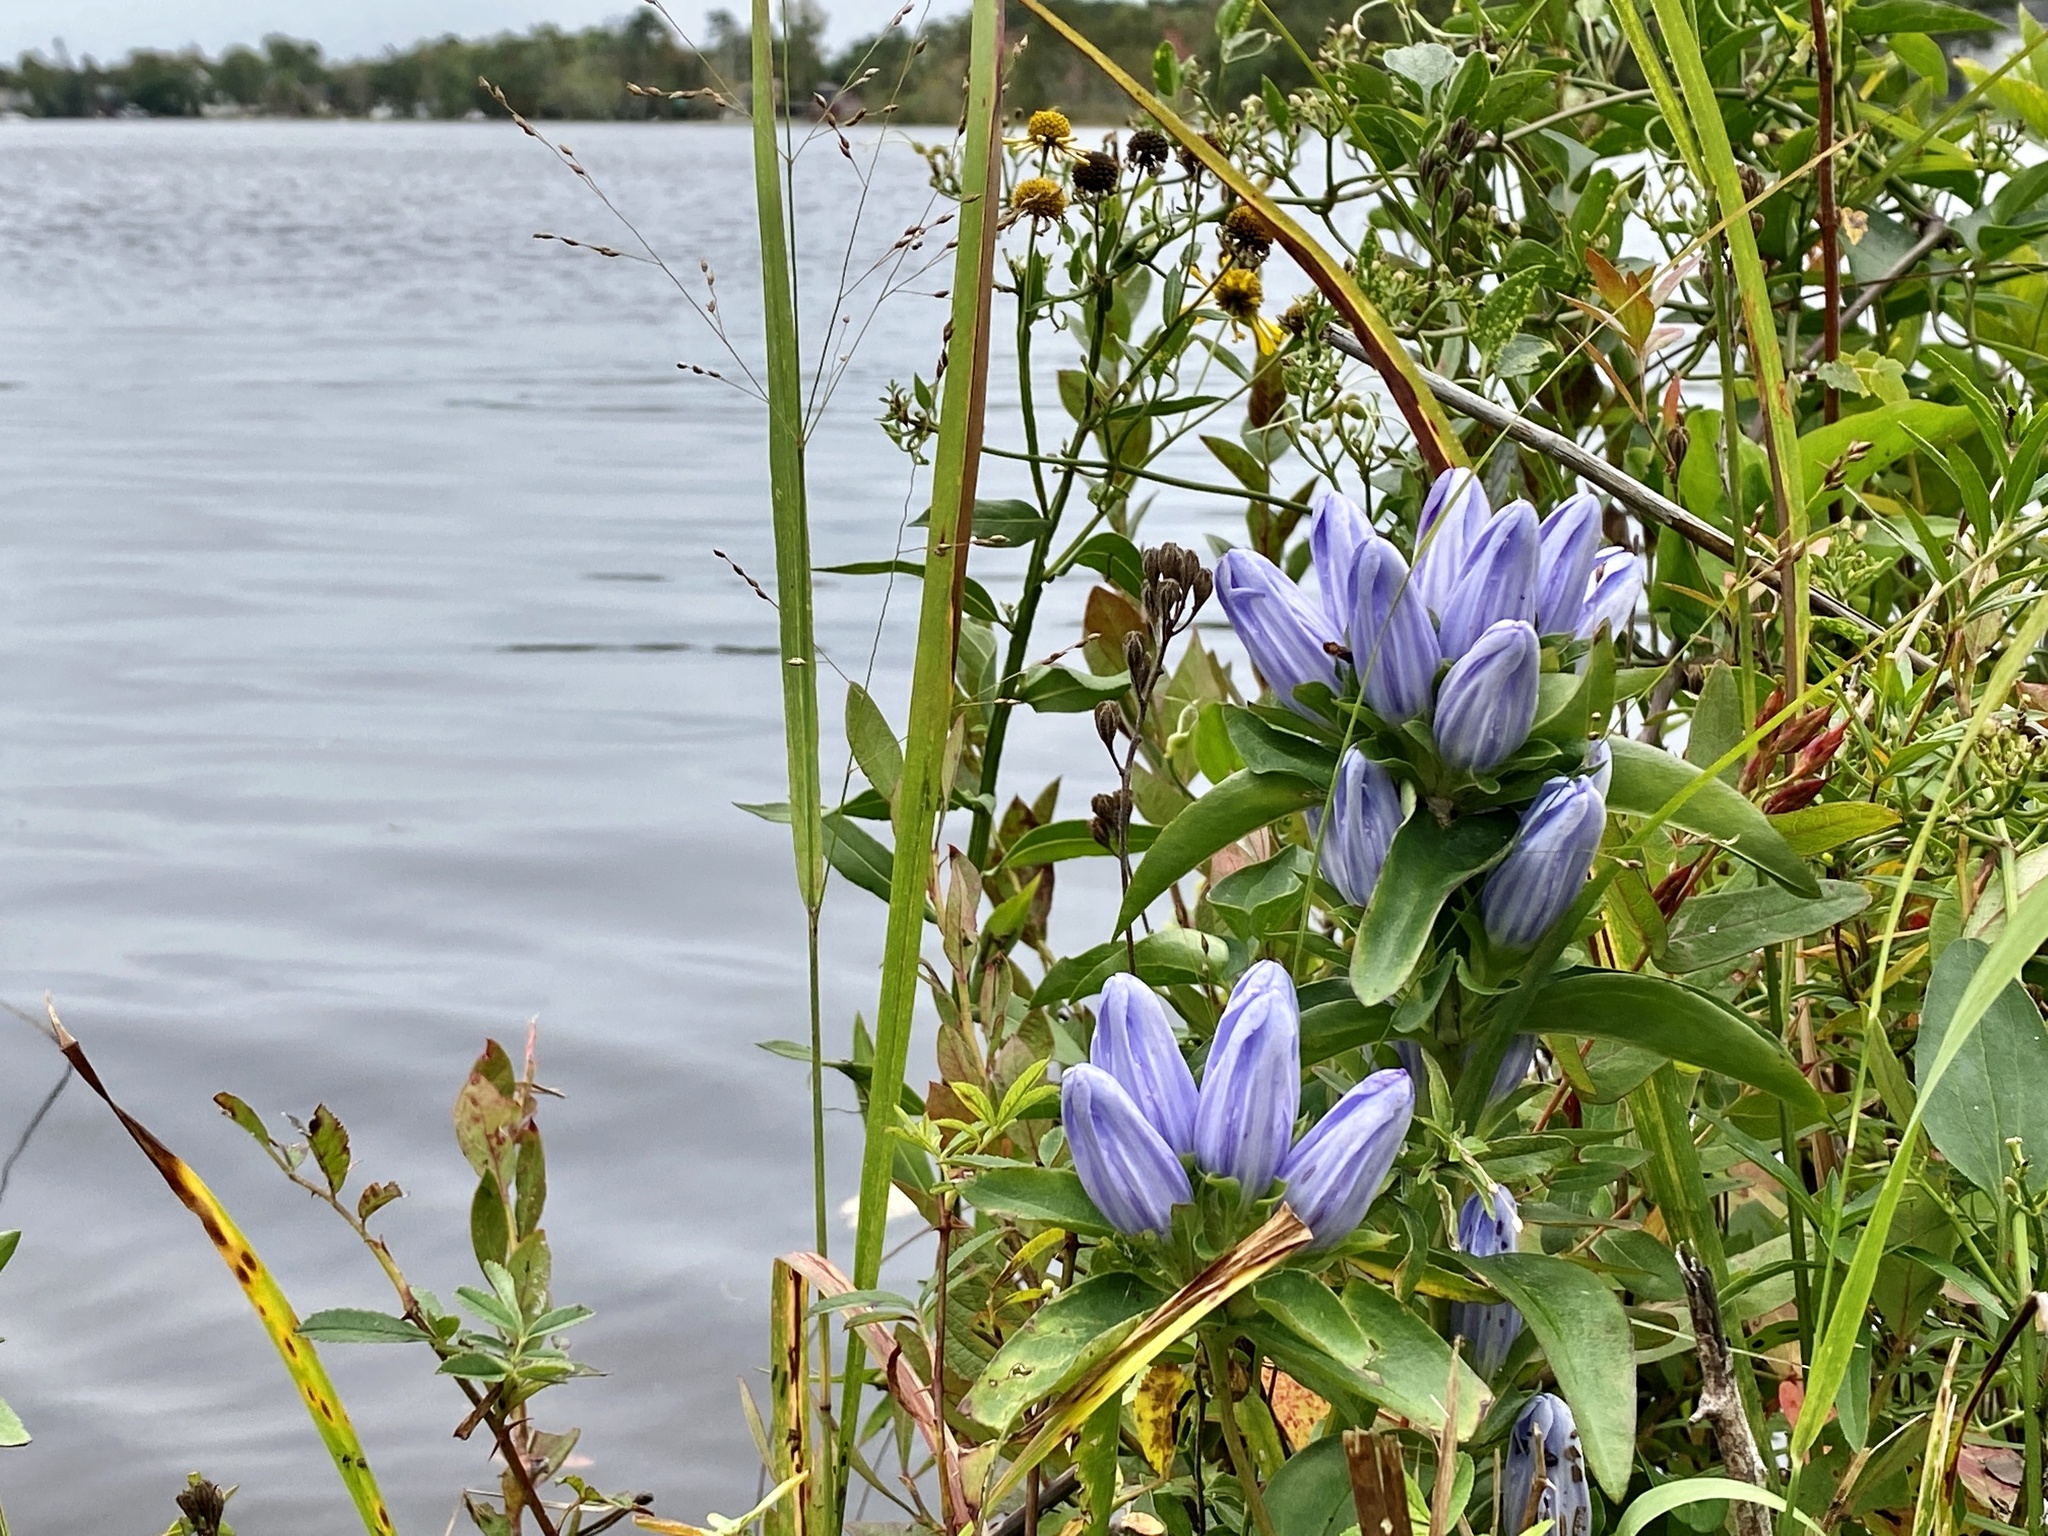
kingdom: Plantae
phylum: Tracheophyta
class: Magnoliopsida
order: Gentianales
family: Gentianaceae
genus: Gentiana
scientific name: Gentiana saponaria
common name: Soapwort gentian
